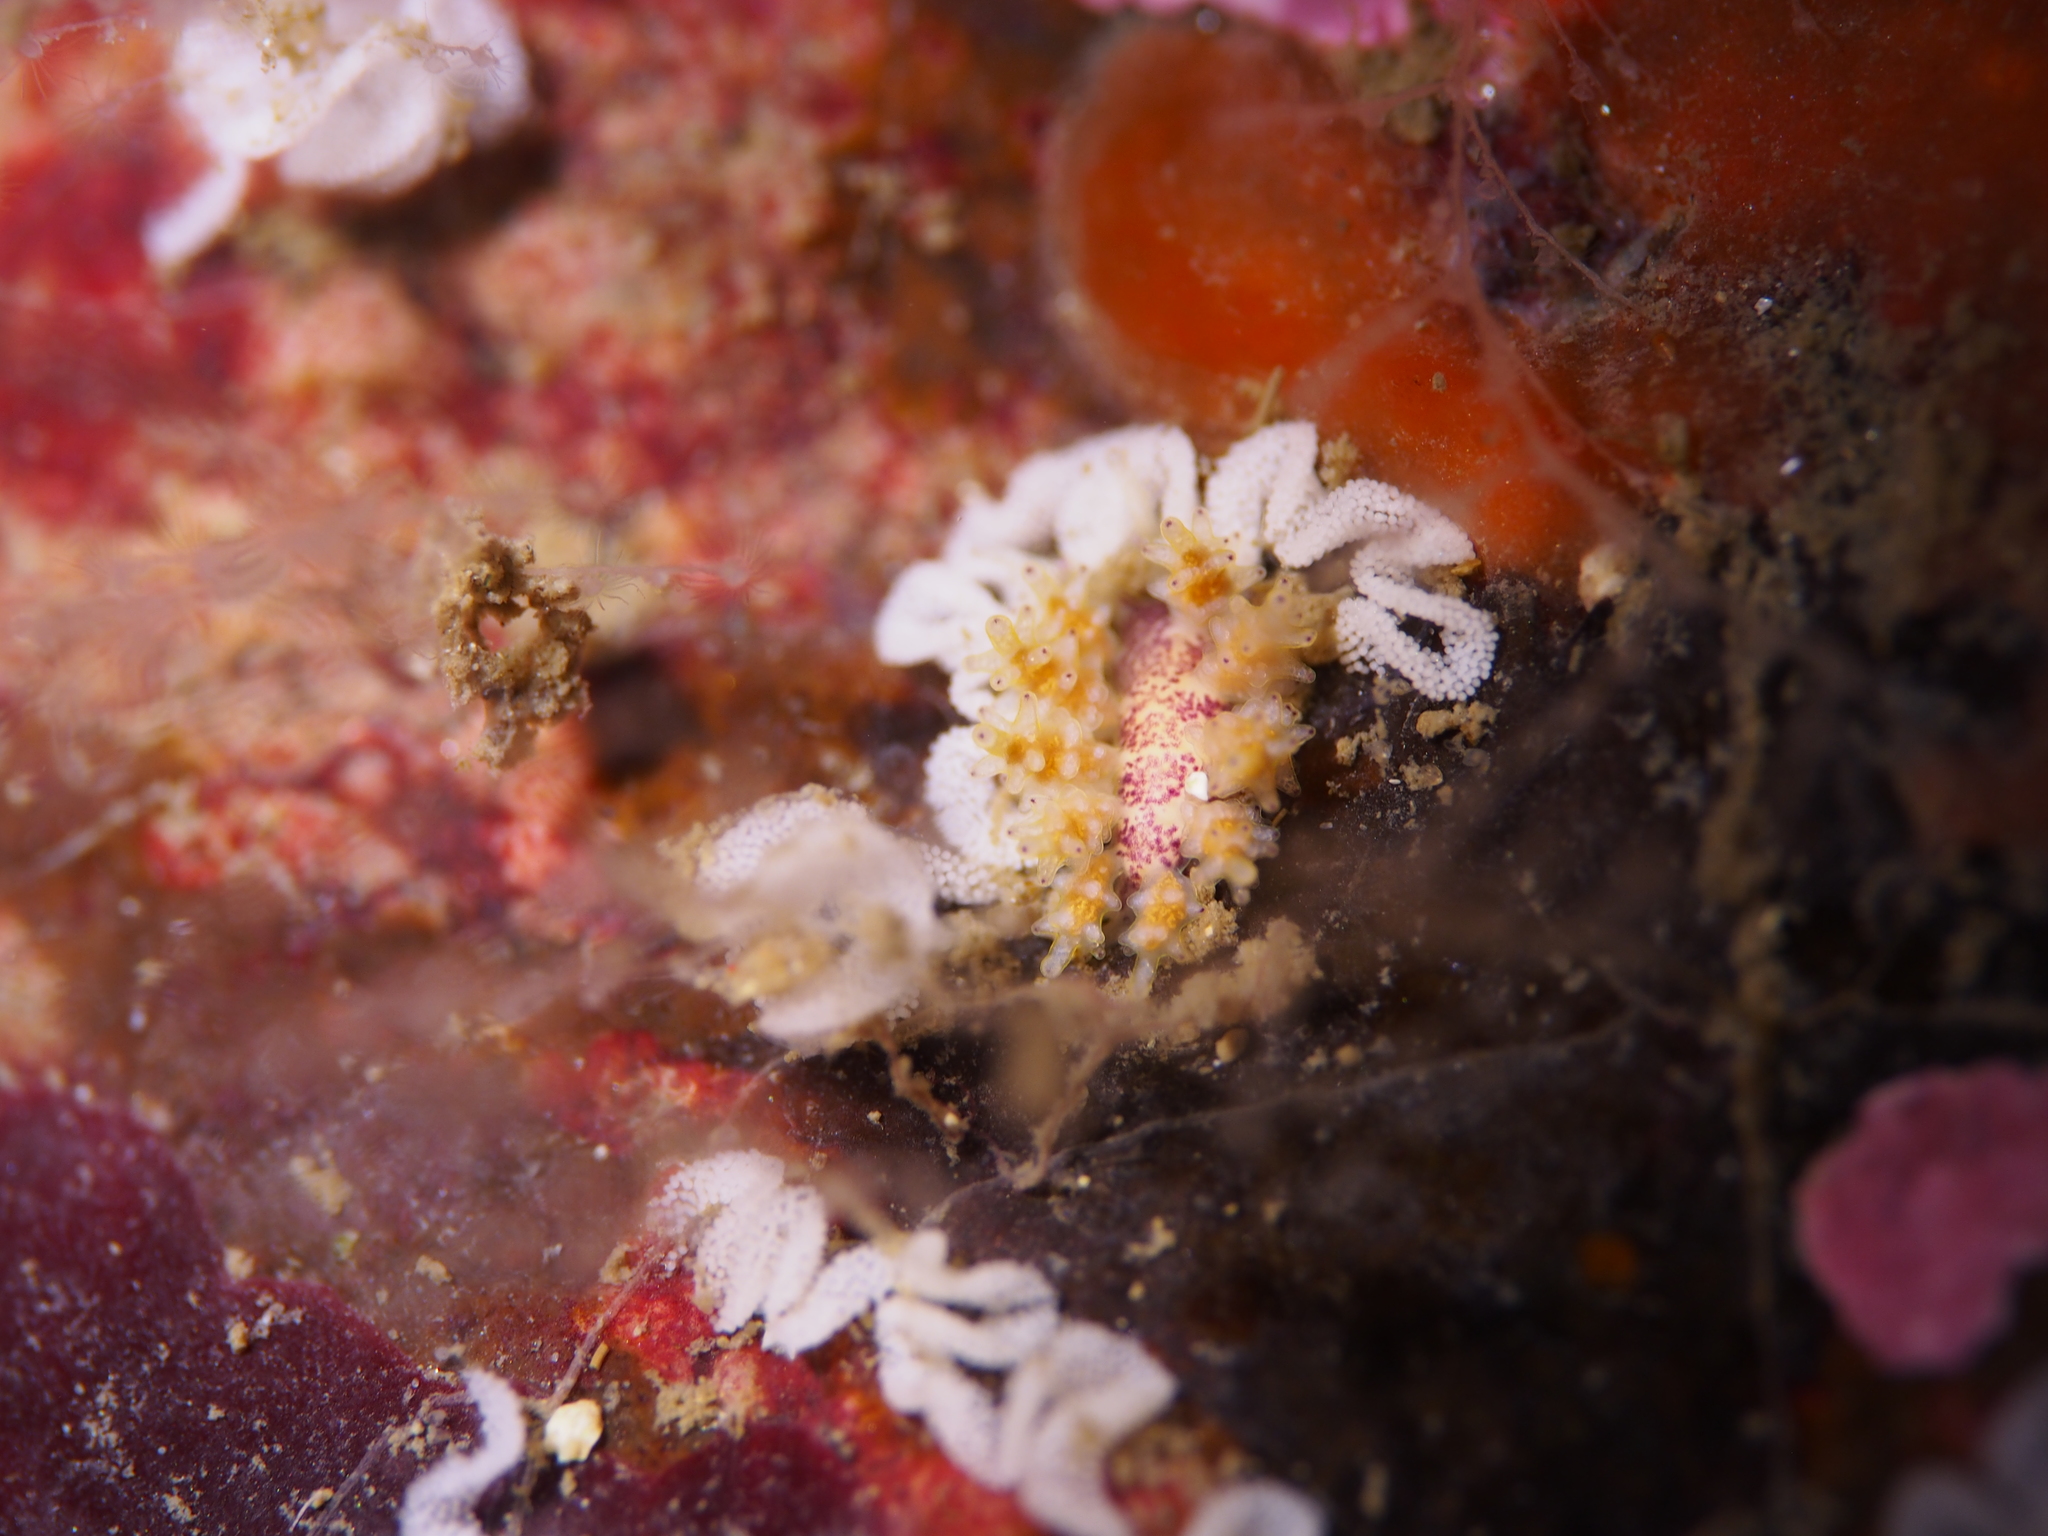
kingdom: Animalia
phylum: Mollusca
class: Gastropoda
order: Nudibranchia
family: Dotidae
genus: Doto
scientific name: Doto dunnei
